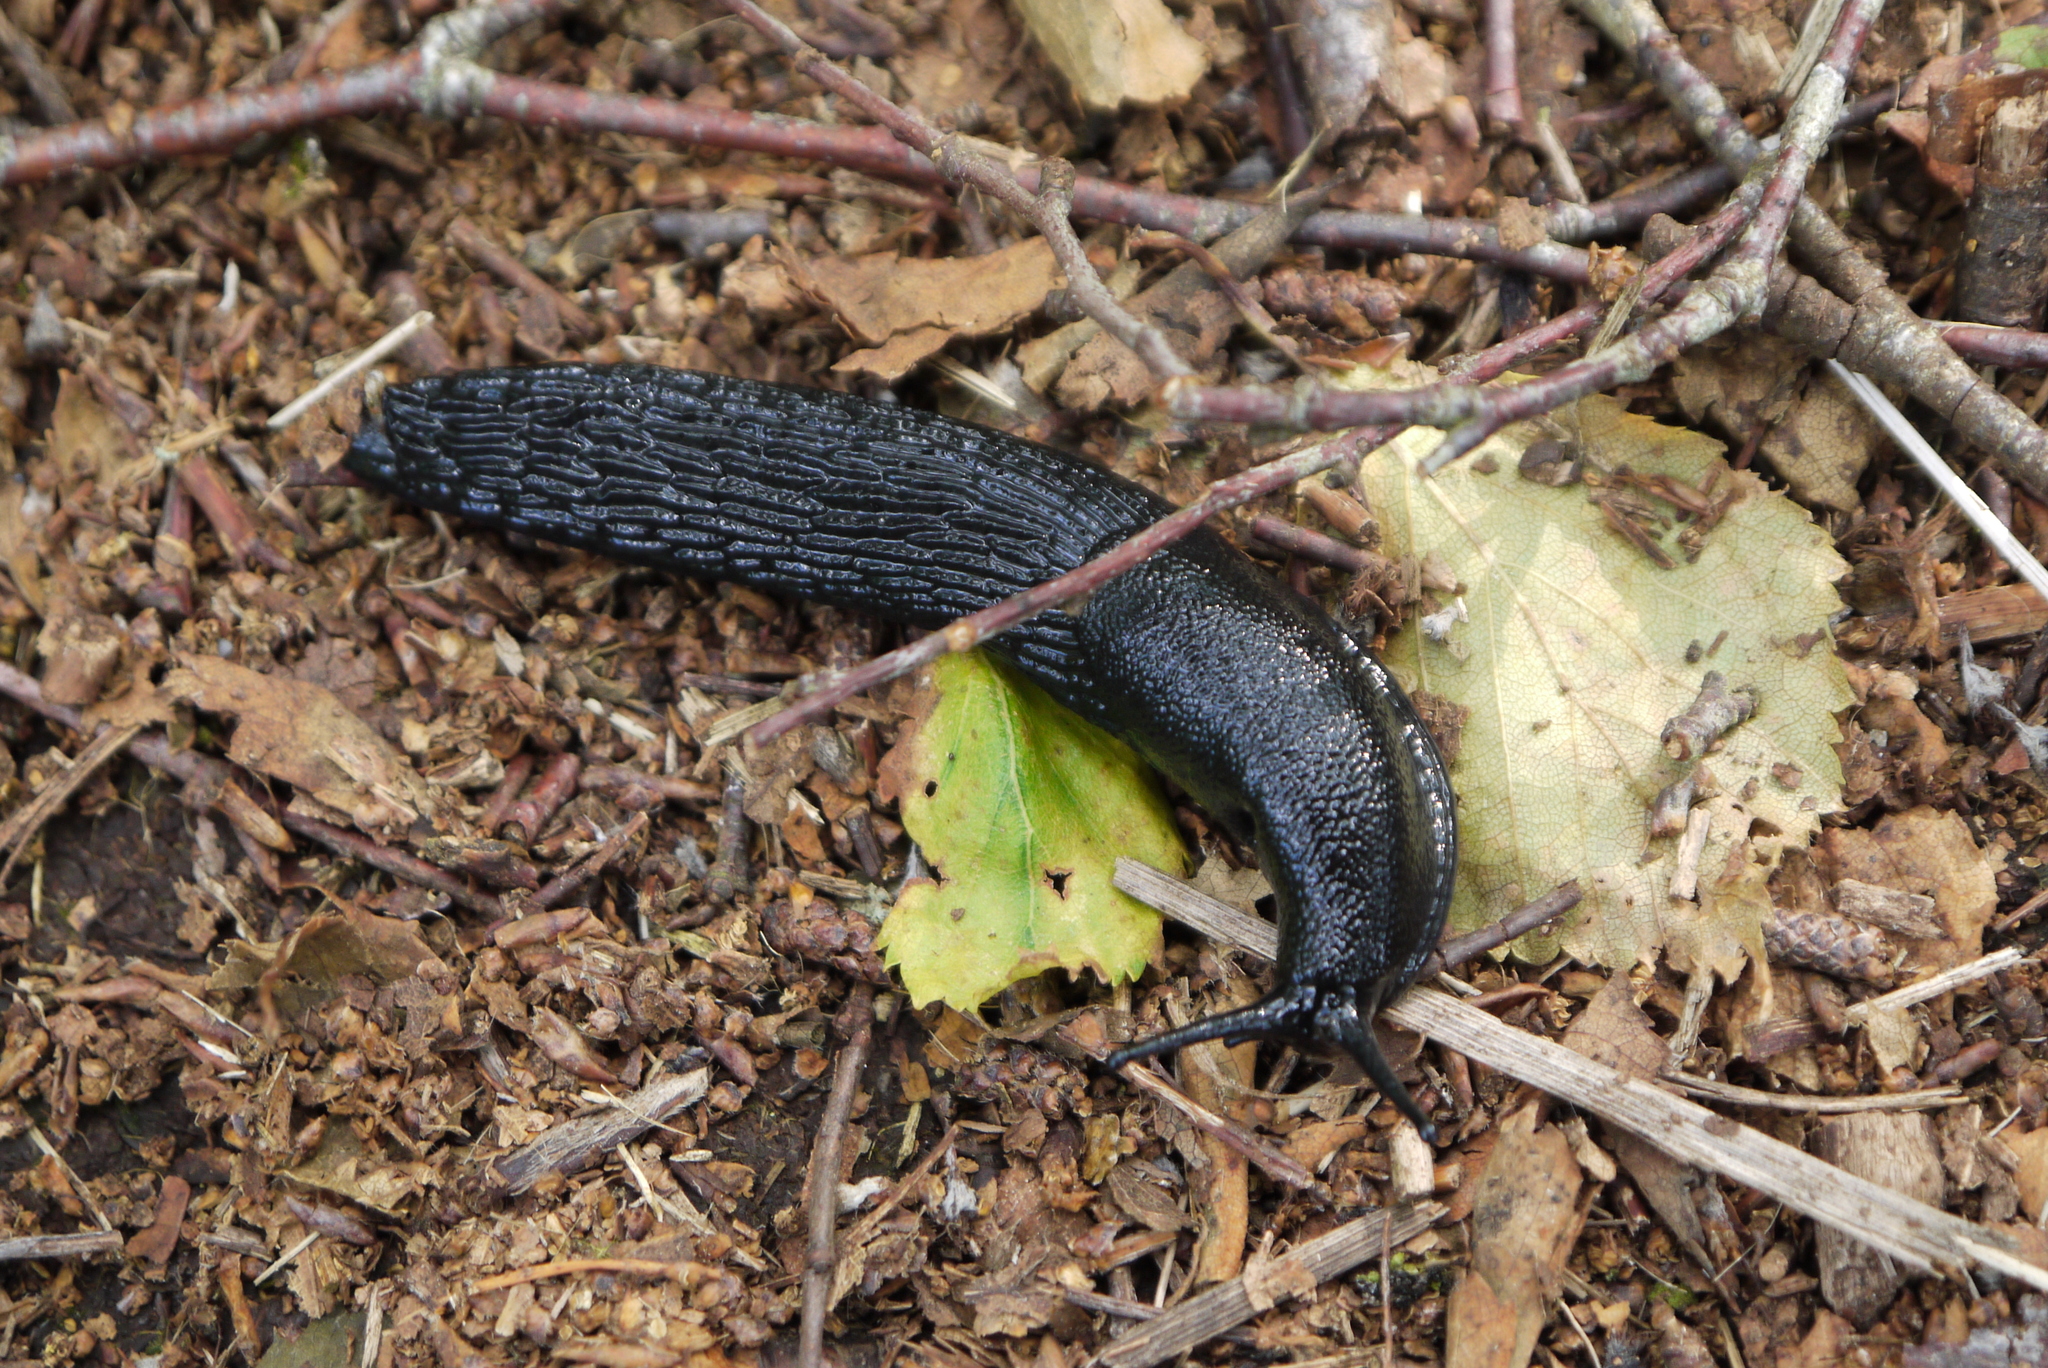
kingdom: Animalia
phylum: Mollusca
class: Gastropoda
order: Stylommatophora
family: Arionidae
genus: Arion
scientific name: Arion ater
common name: Black arion
